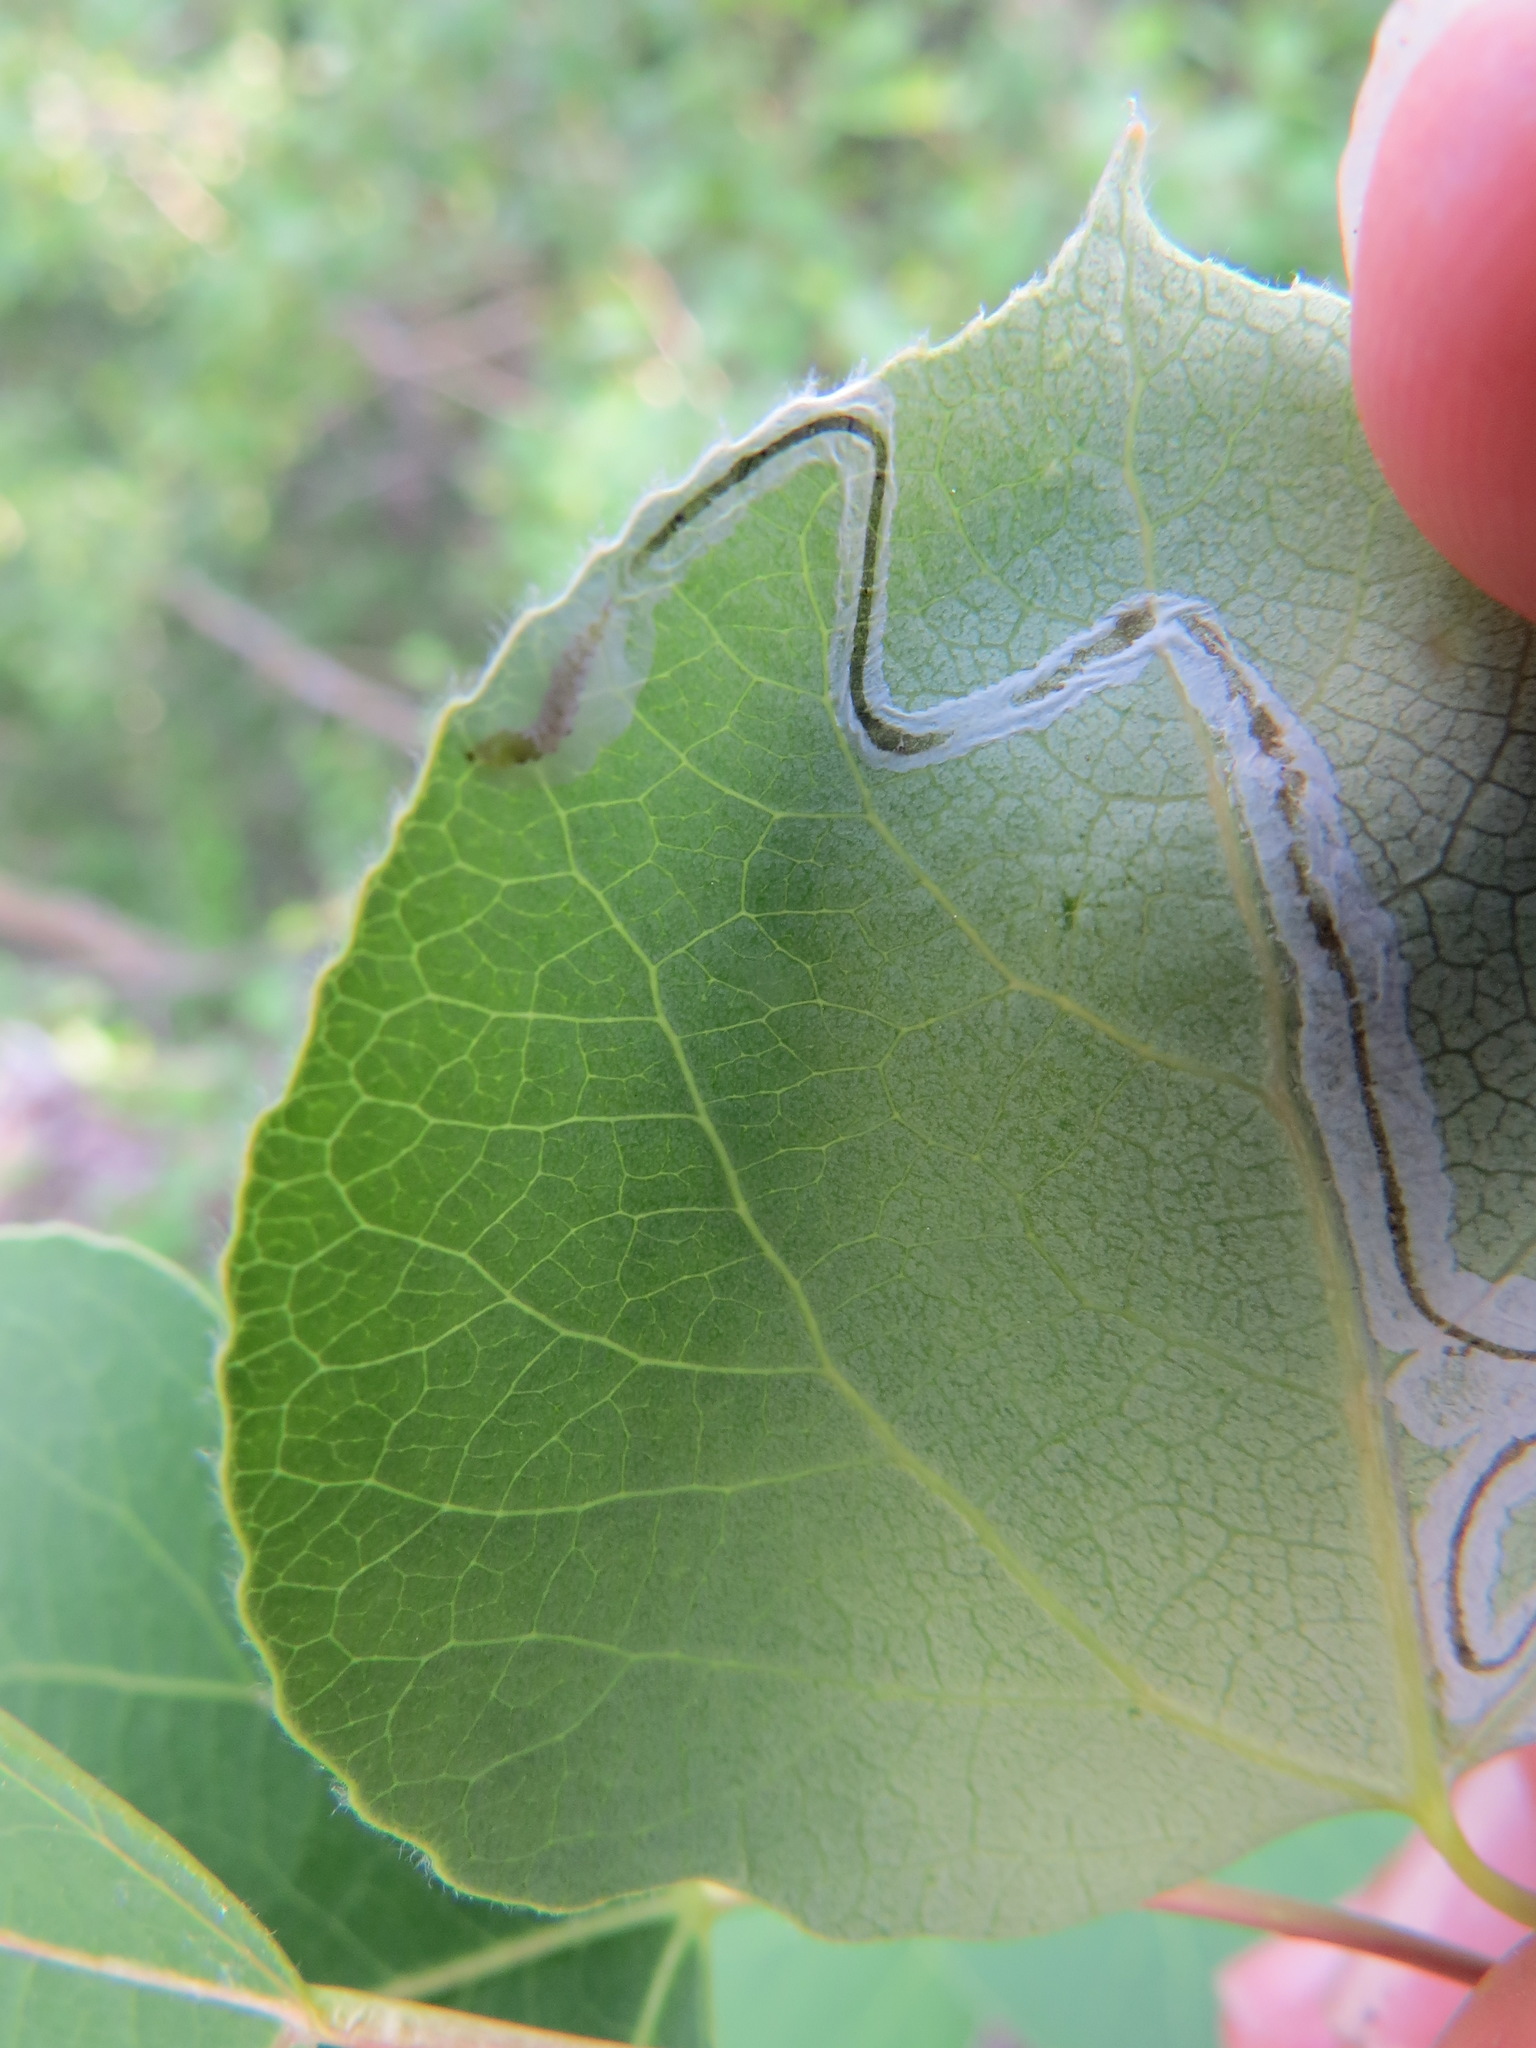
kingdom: Animalia
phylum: Arthropoda
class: Insecta
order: Lepidoptera
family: Gracillariidae
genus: Phyllocnistis
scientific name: Phyllocnistis populiella
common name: Aspen serpentine leafminer moth
